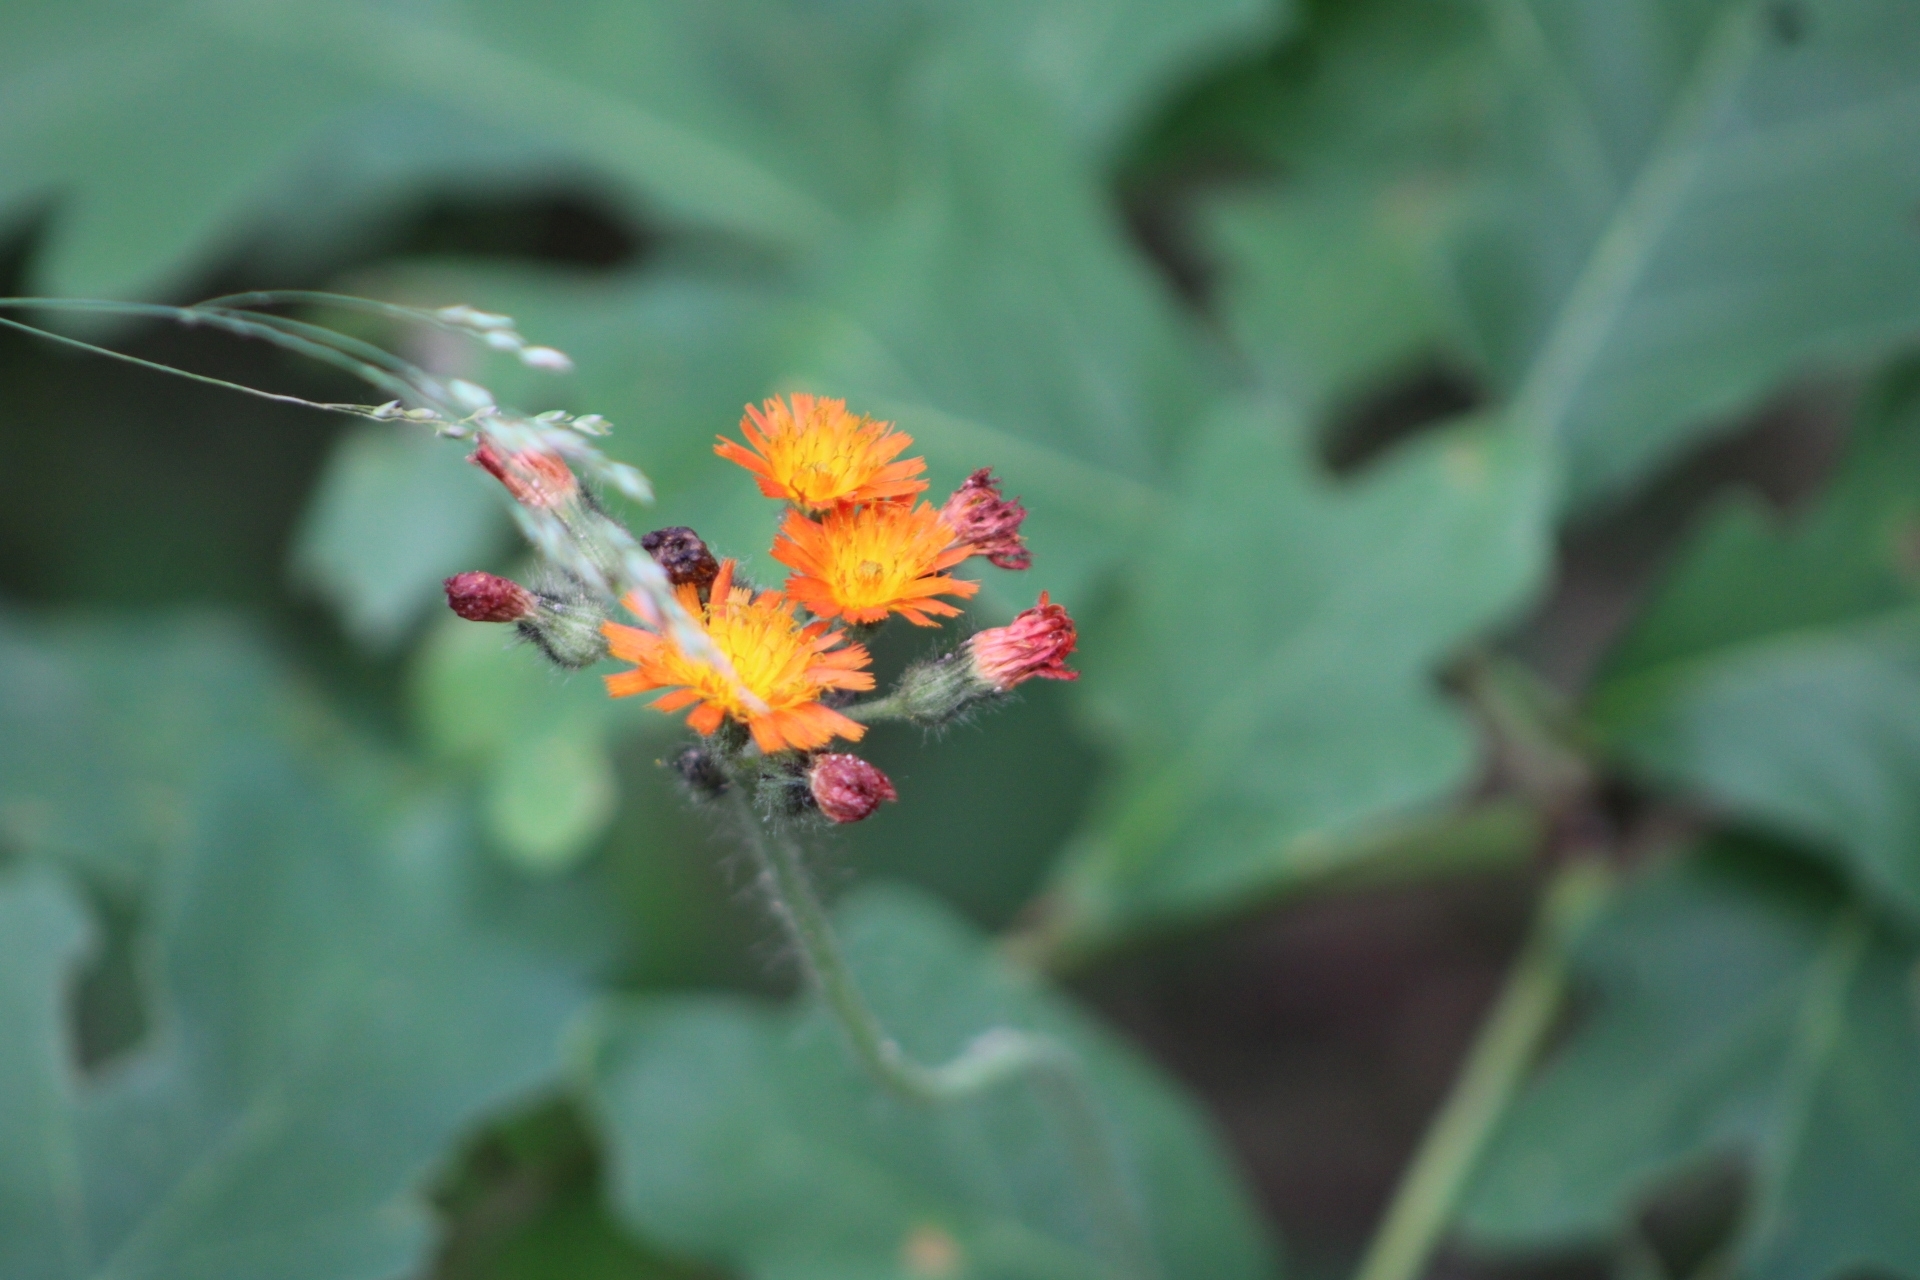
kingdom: Plantae
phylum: Tracheophyta
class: Magnoliopsida
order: Asterales
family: Asteraceae
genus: Pilosella
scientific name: Pilosella aurantiaca
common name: Fox-and-cubs
